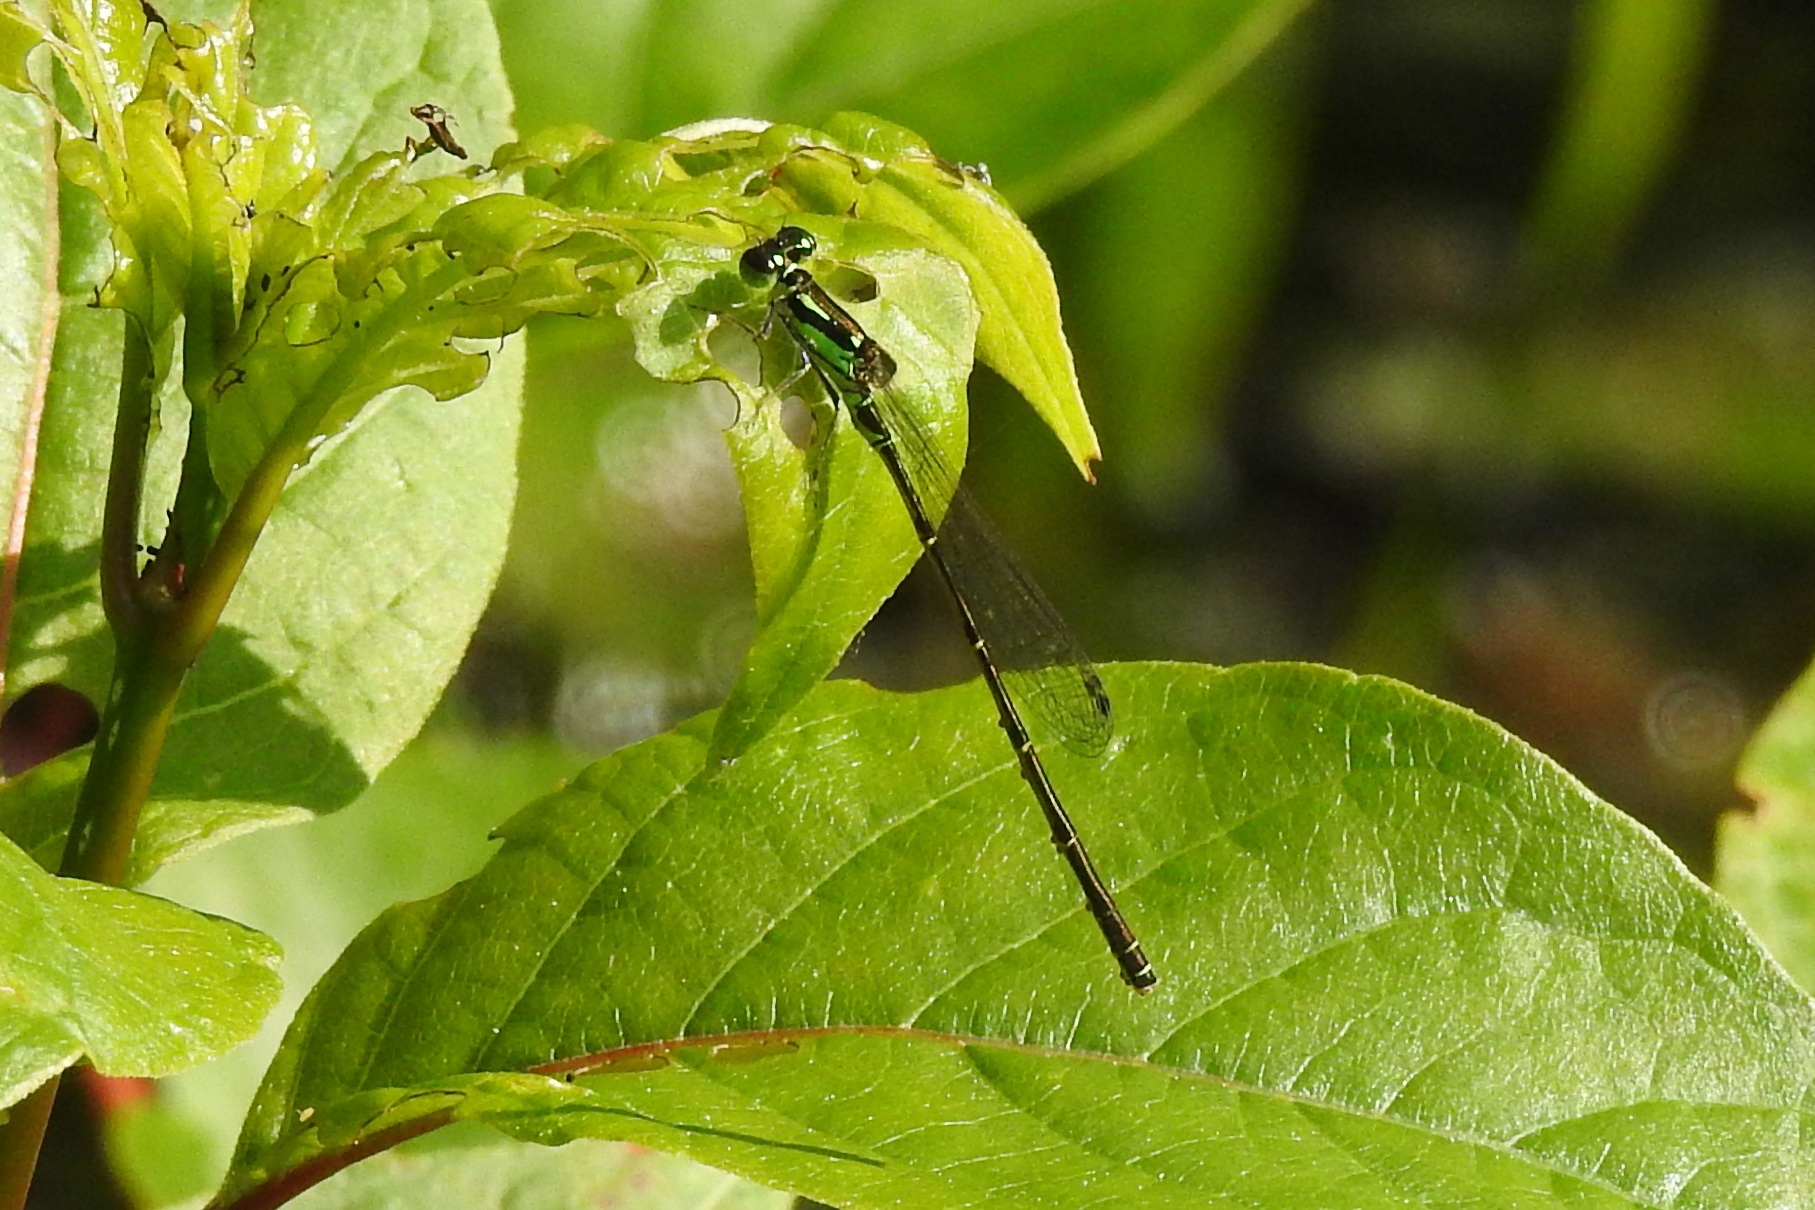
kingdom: Animalia
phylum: Arthropoda
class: Insecta
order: Odonata
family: Coenagrionidae
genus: Ischnura
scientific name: Ischnura posita
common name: Fragile forktail
